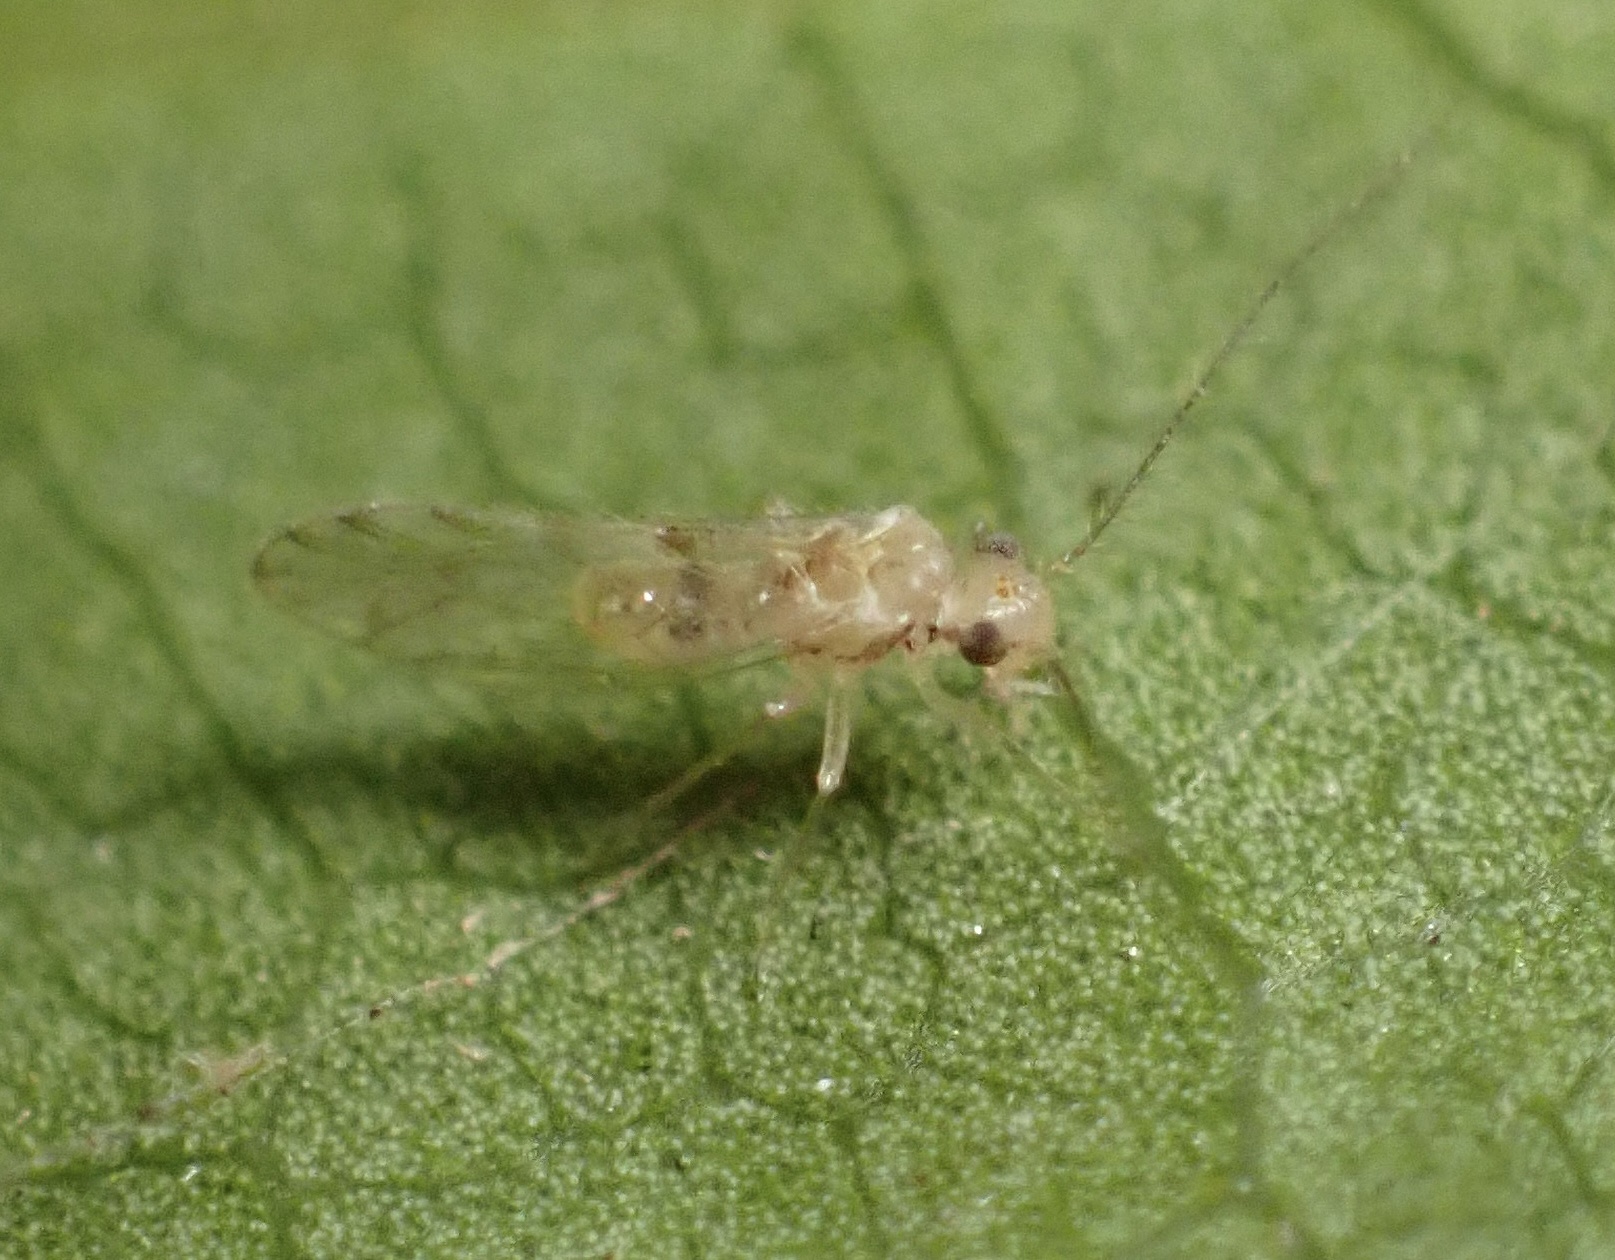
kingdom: Animalia
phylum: Arthropoda
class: Insecta
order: Psocodea
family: Trichopsocidae
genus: Trichopsocus
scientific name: Trichopsocus clarus
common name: Lash-faced psocid
